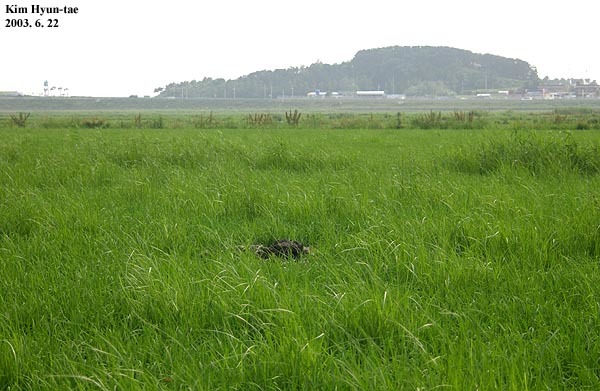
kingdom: Animalia
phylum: Chordata
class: Aves
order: Charadriiformes
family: Rostratulidae
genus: Rostratula
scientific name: Rostratula benghalensis
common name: Greater painted-snipe
